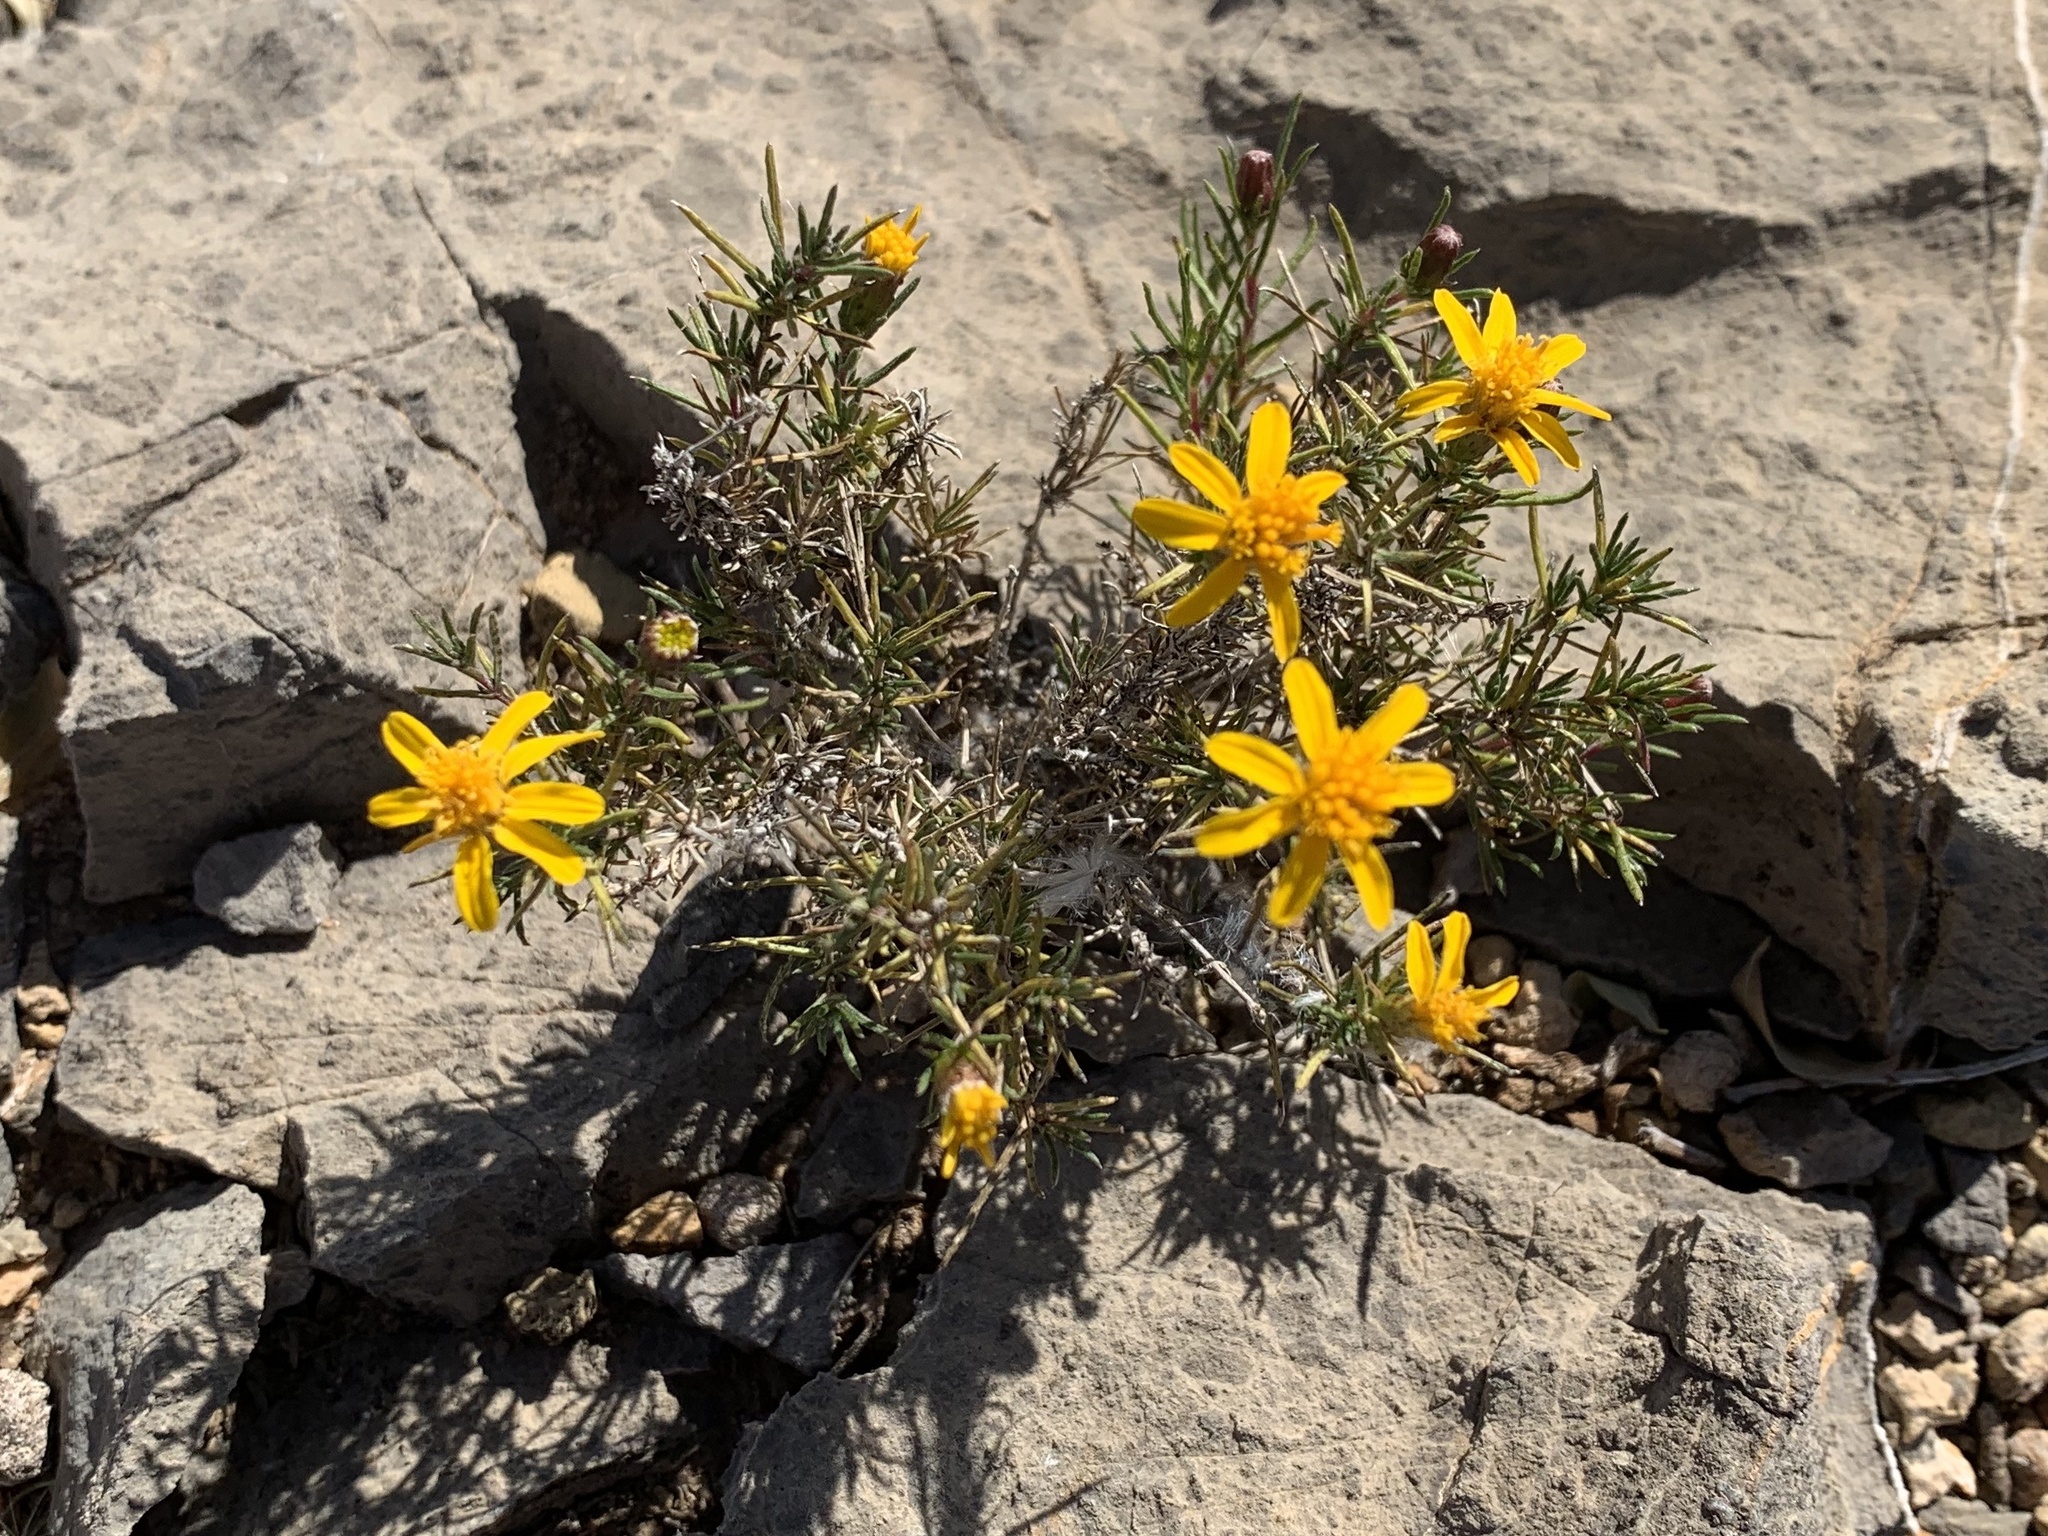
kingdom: Plantae
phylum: Tracheophyta
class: Magnoliopsida
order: Asterales
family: Asteraceae
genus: Thymophylla
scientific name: Thymophylla acerosa
